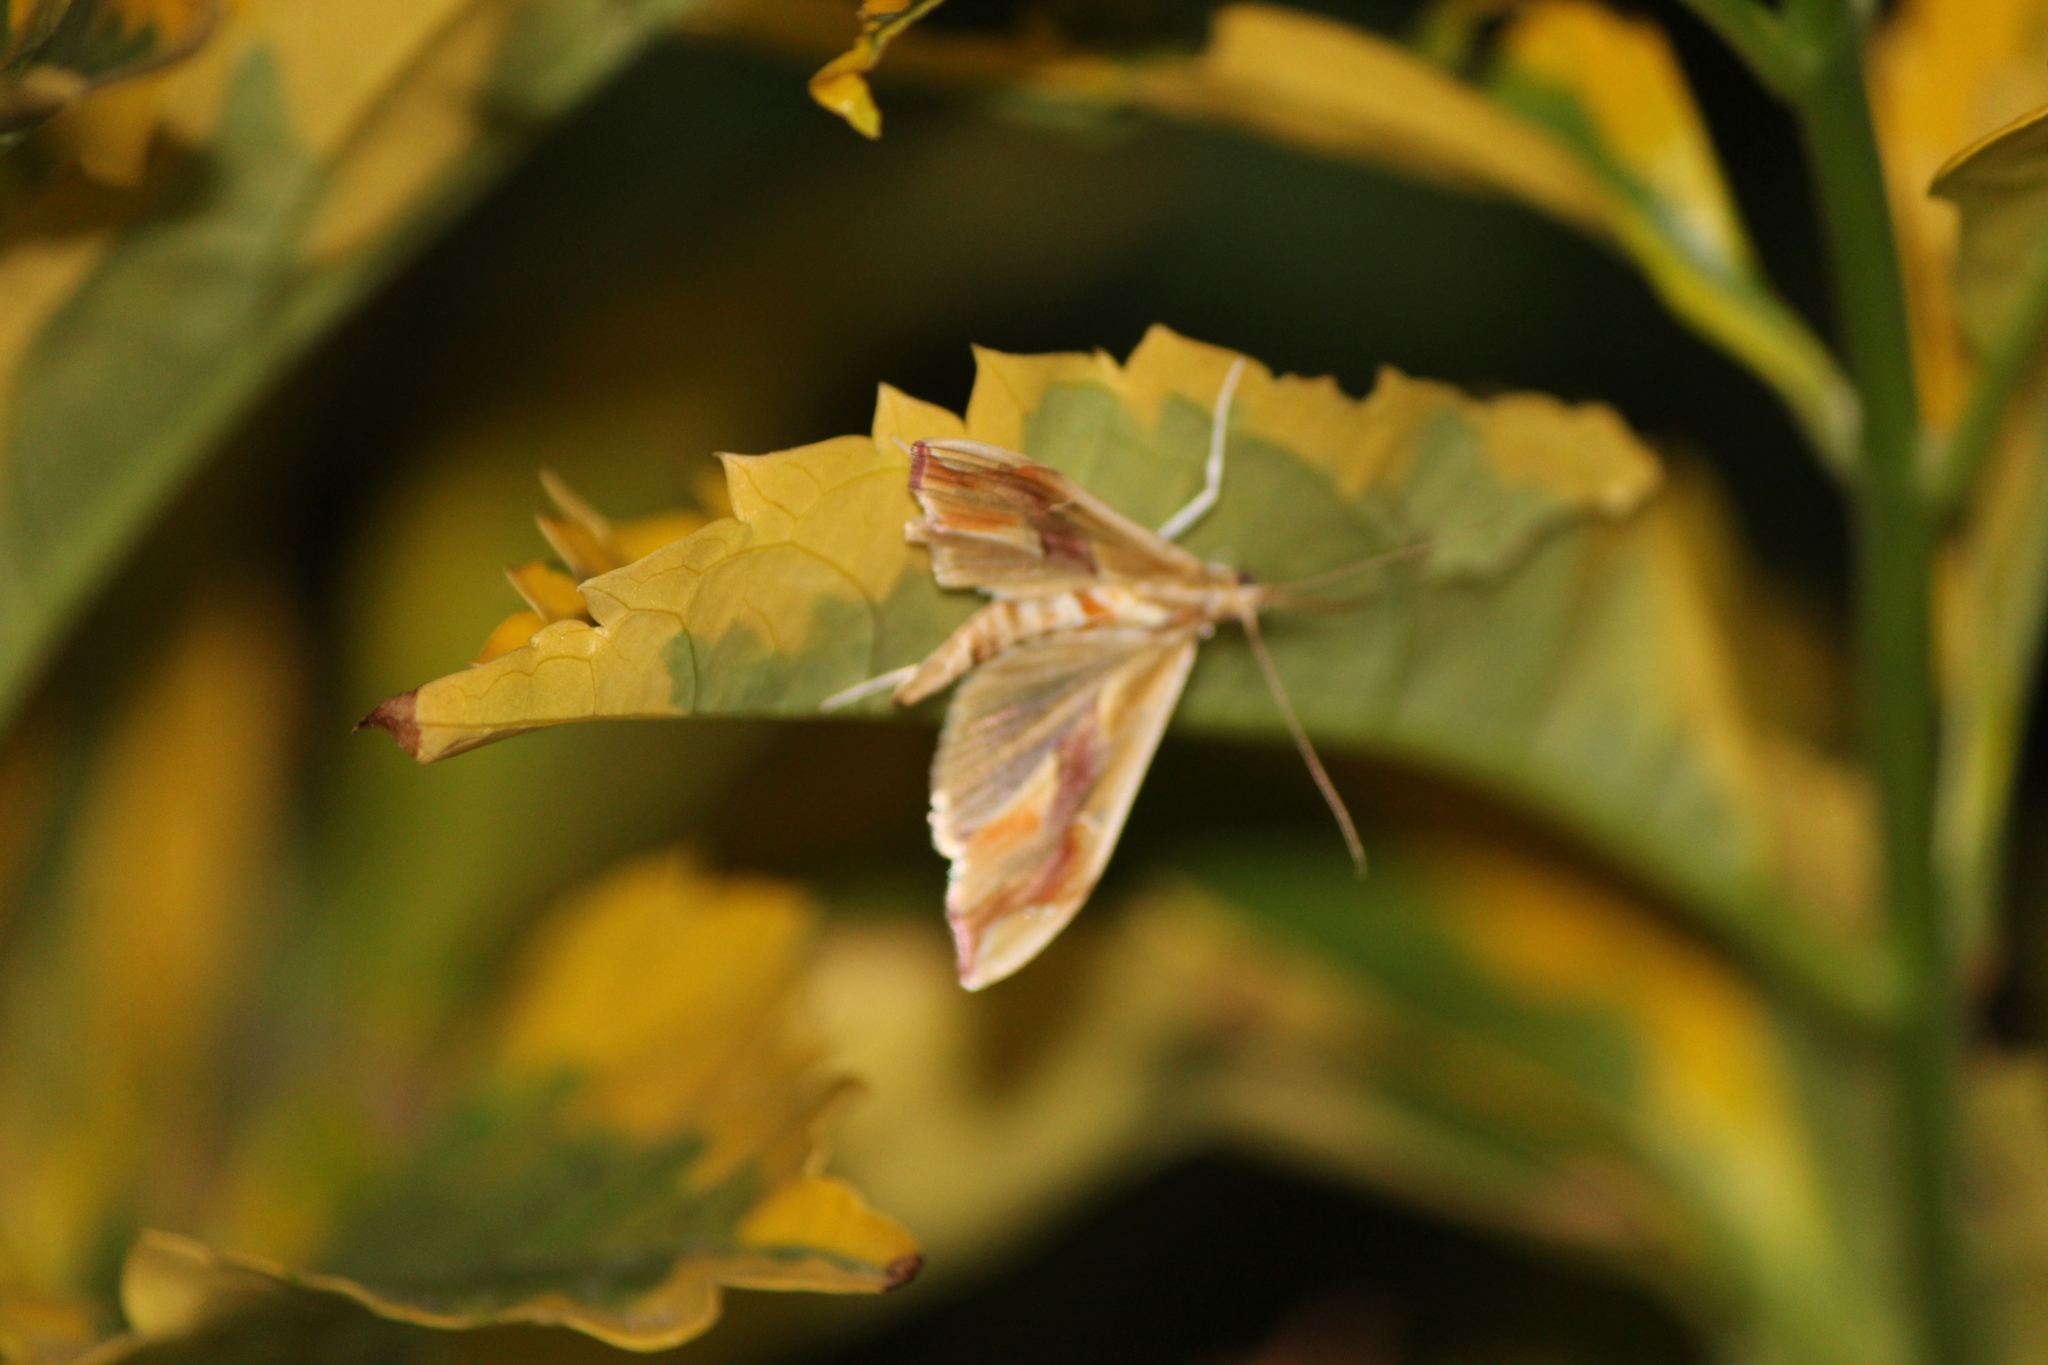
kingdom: Animalia
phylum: Arthropoda
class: Insecta
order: Lepidoptera
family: Crambidae
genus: Agathodes
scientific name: Agathodes monstralis
